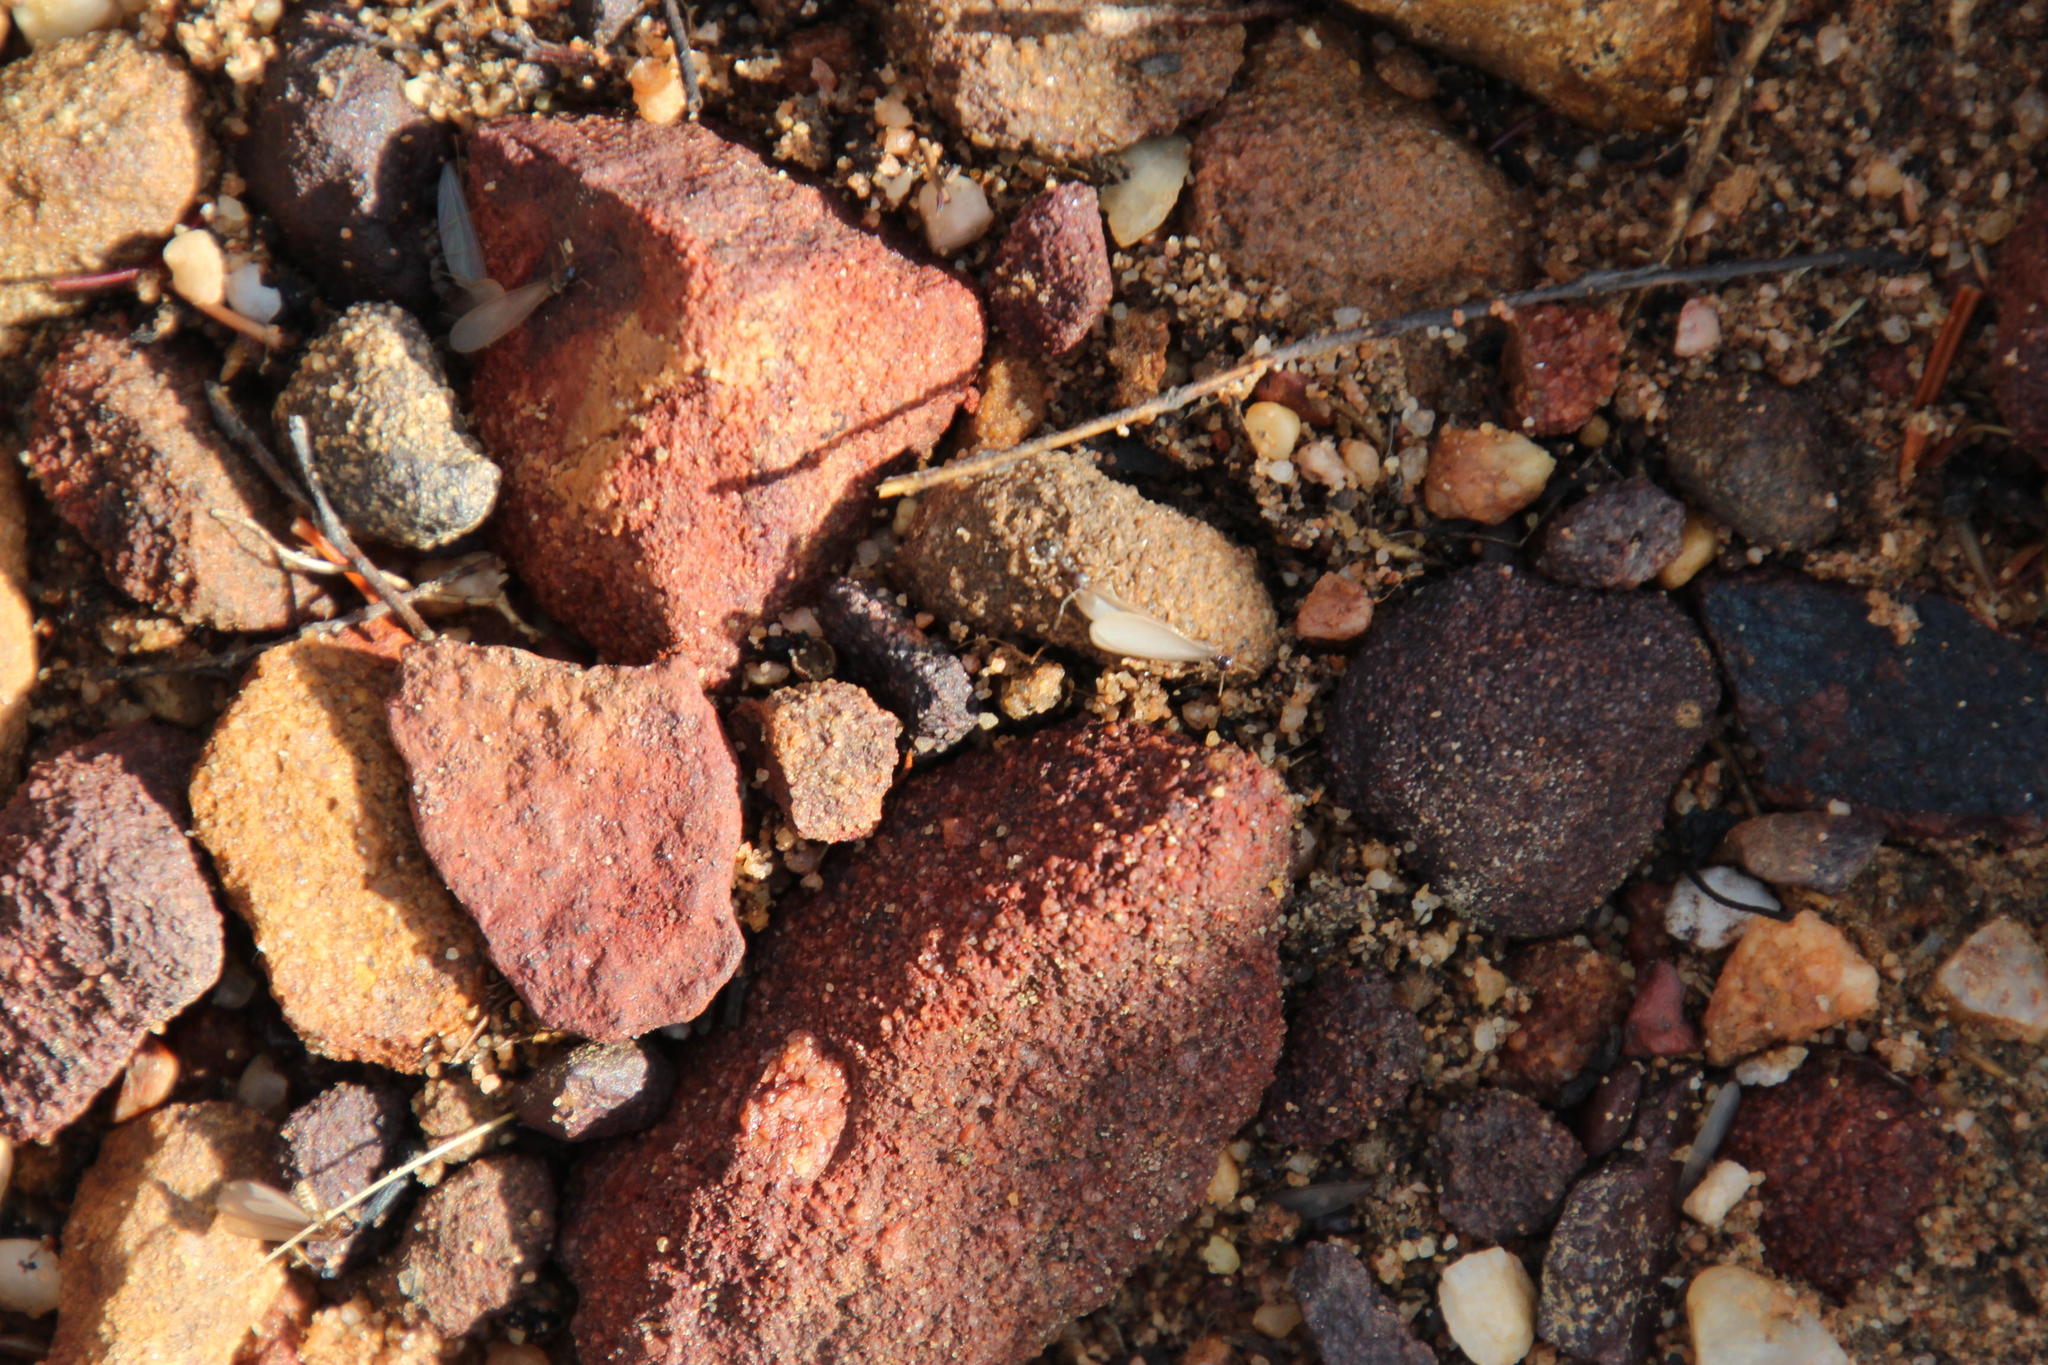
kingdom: Animalia
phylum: Arthropoda
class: Insecta
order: Hymenoptera
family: Formicidae
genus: Anoplolepis
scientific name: Anoplolepis steingroeveri
